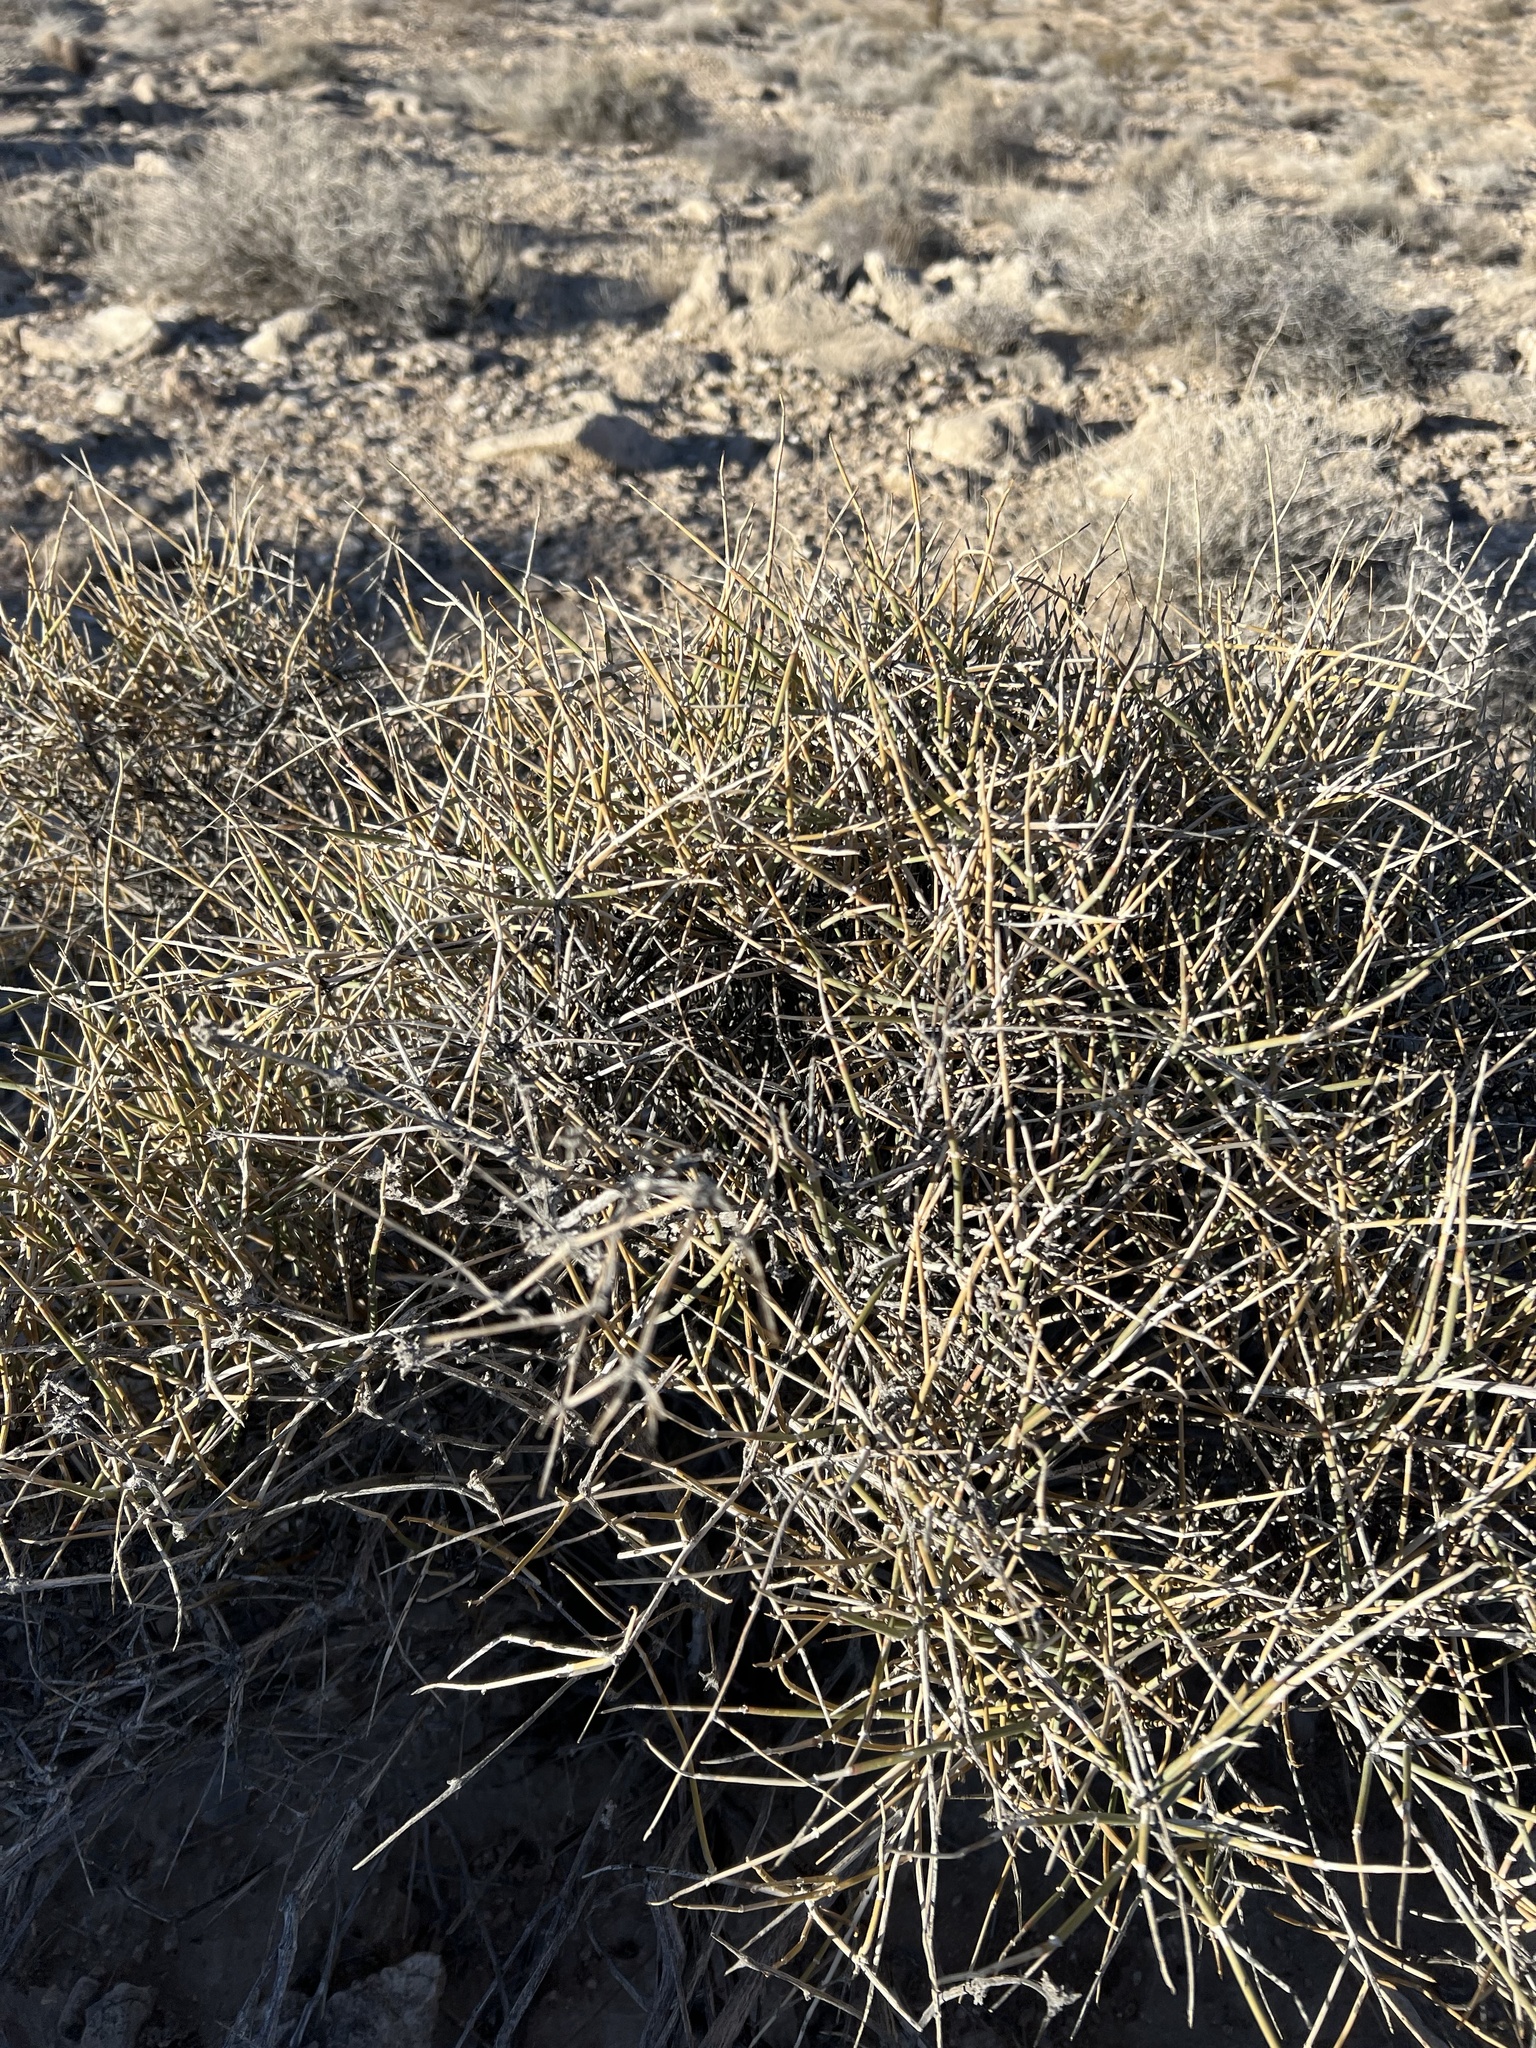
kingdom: Plantae
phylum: Tracheophyta
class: Gnetopsida
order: Ephedrales
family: Ephedraceae
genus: Ephedra
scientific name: Ephedra nevadensis
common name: Gray ephedra
